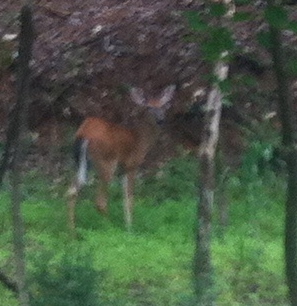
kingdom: Animalia
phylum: Chordata
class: Mammalia
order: Artiodactyla
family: Cervidae
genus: Odocoileus
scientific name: Odocoileus virginianus
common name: White-tailed deer
